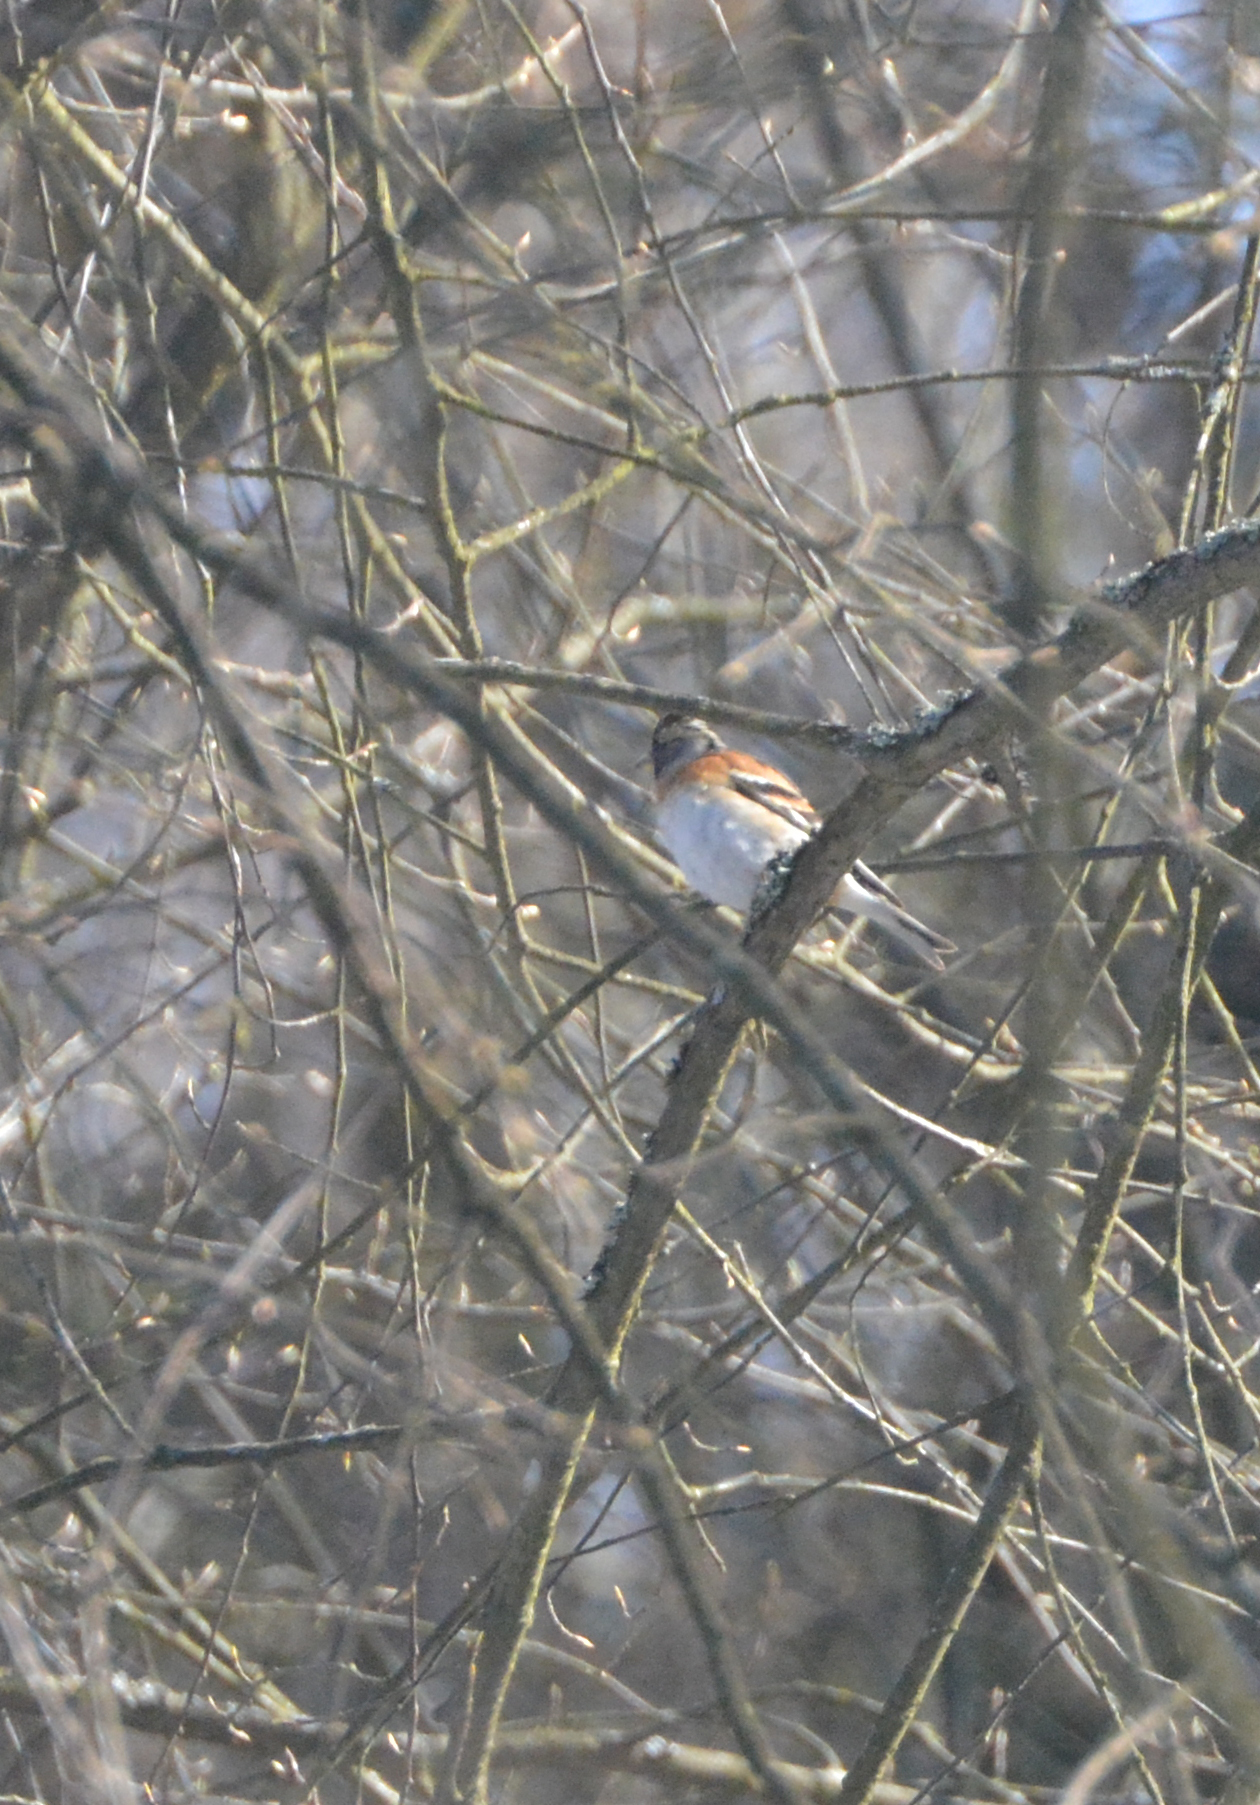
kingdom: Animalia
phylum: Chordata
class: Aves
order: Passeriformes
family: Fringillidae
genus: Fringilla
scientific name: Fringilla montifringilla
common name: Brambling
